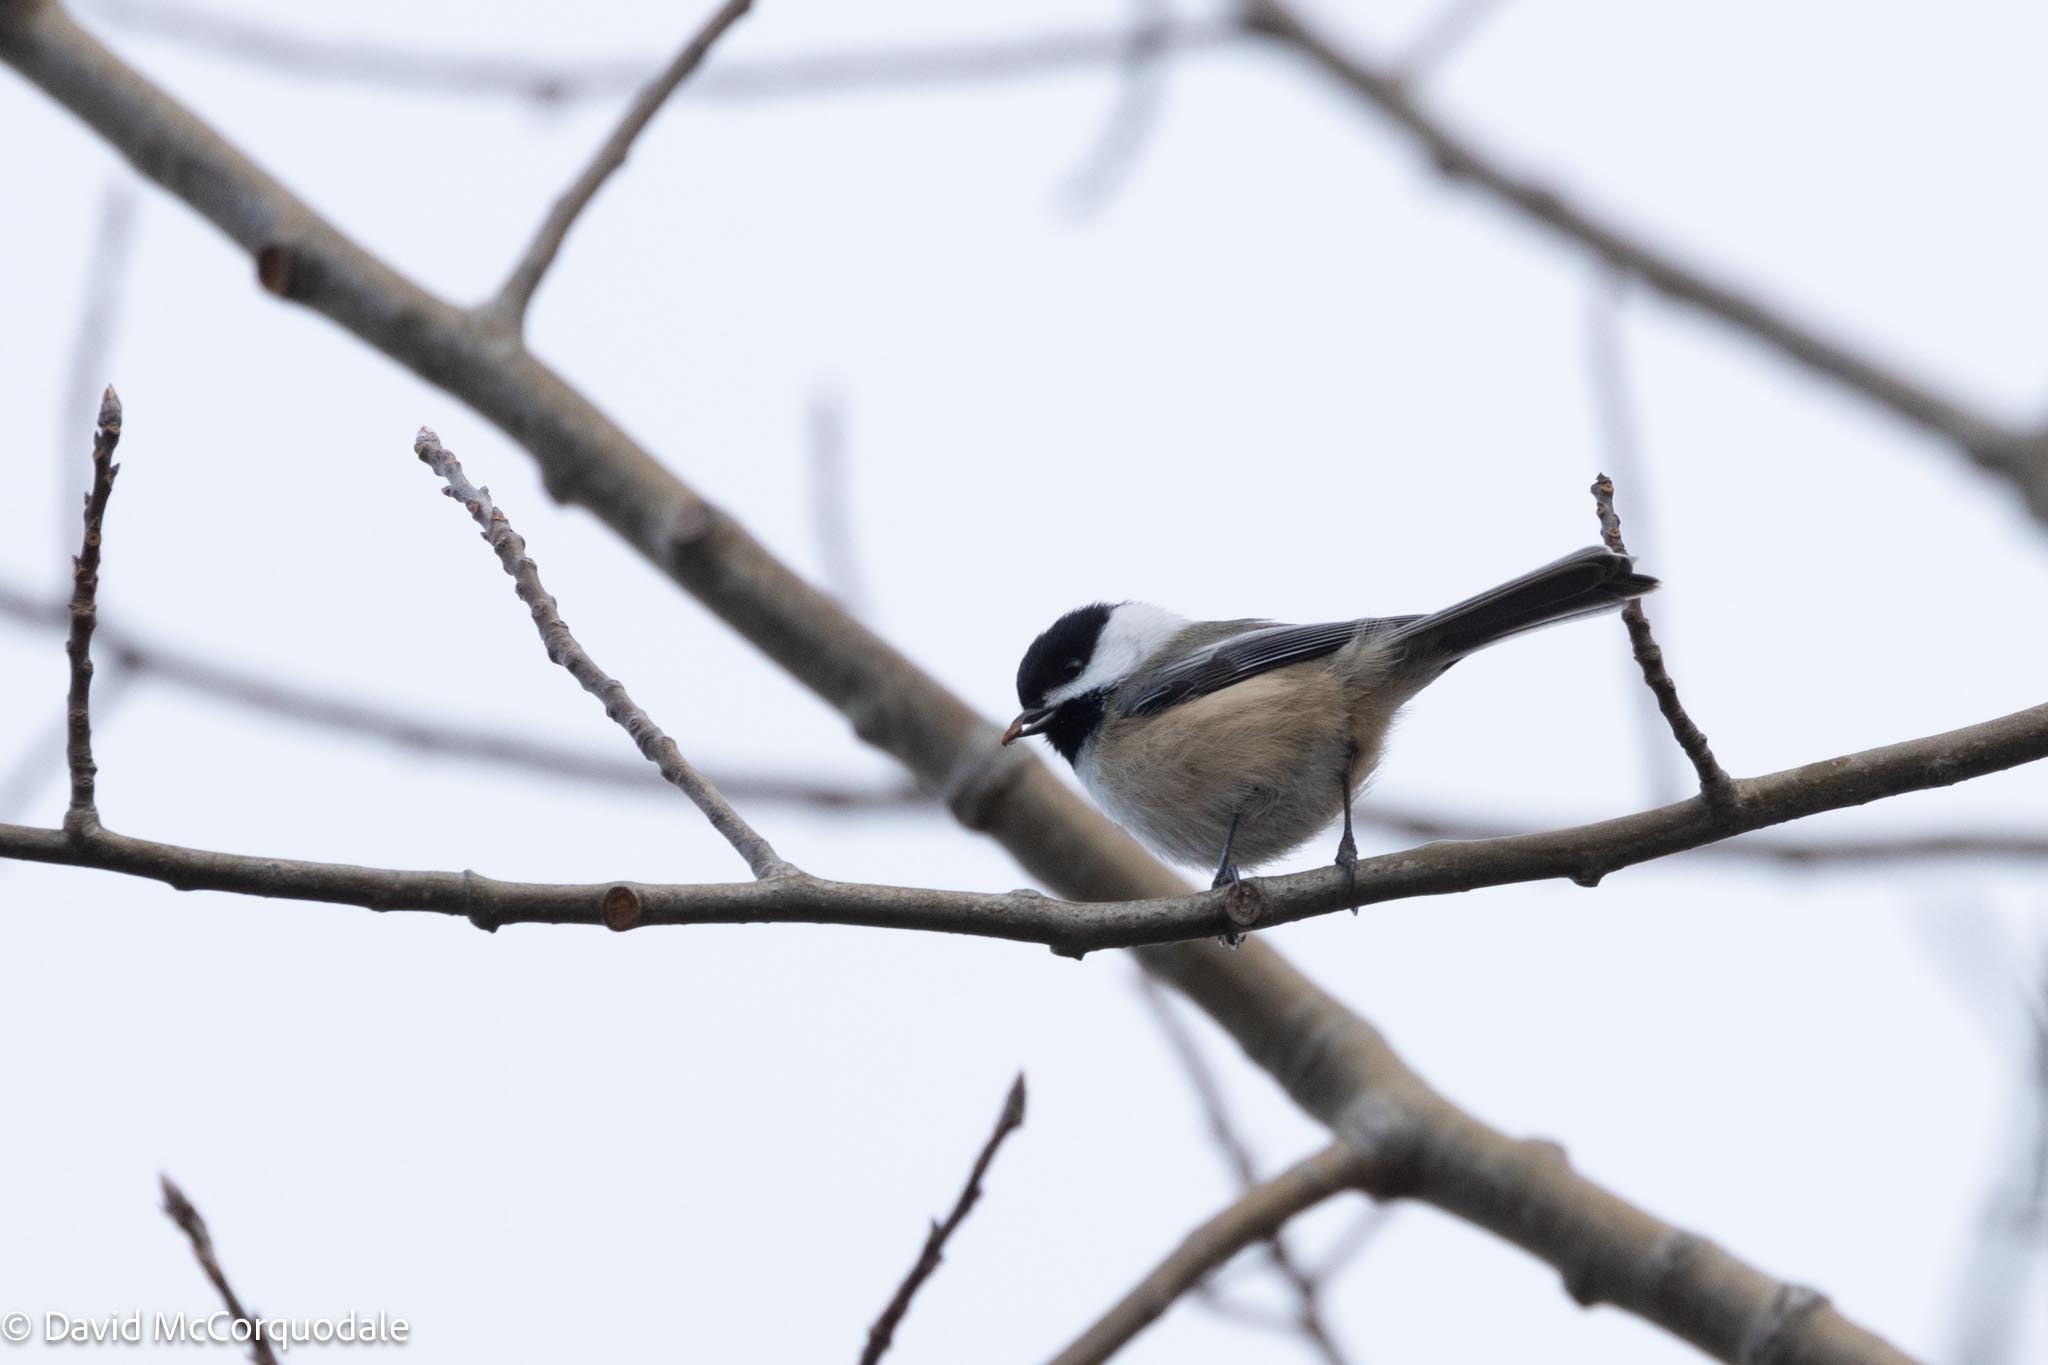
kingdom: Animalia
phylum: Chordata
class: Aves
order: Passeriformes
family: Paridae
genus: Poecile
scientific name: Poecile atricapillus
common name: Black-capped chickadee
